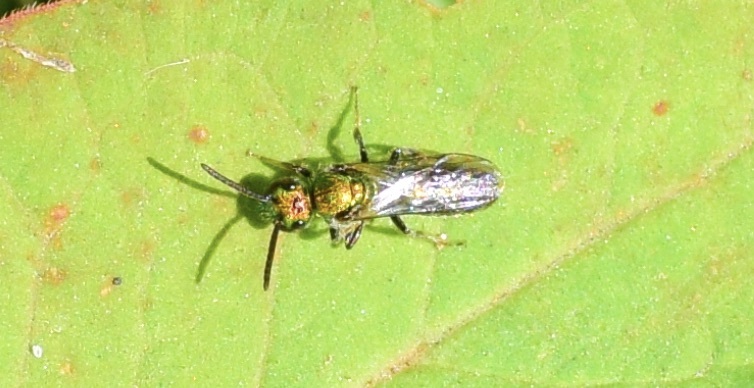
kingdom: Animalia
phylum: Arthropoda
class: Insecta
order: Hymenoptera
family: Halictidae
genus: Augochlora
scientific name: Augochlora pura
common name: Pure green sweat bee
